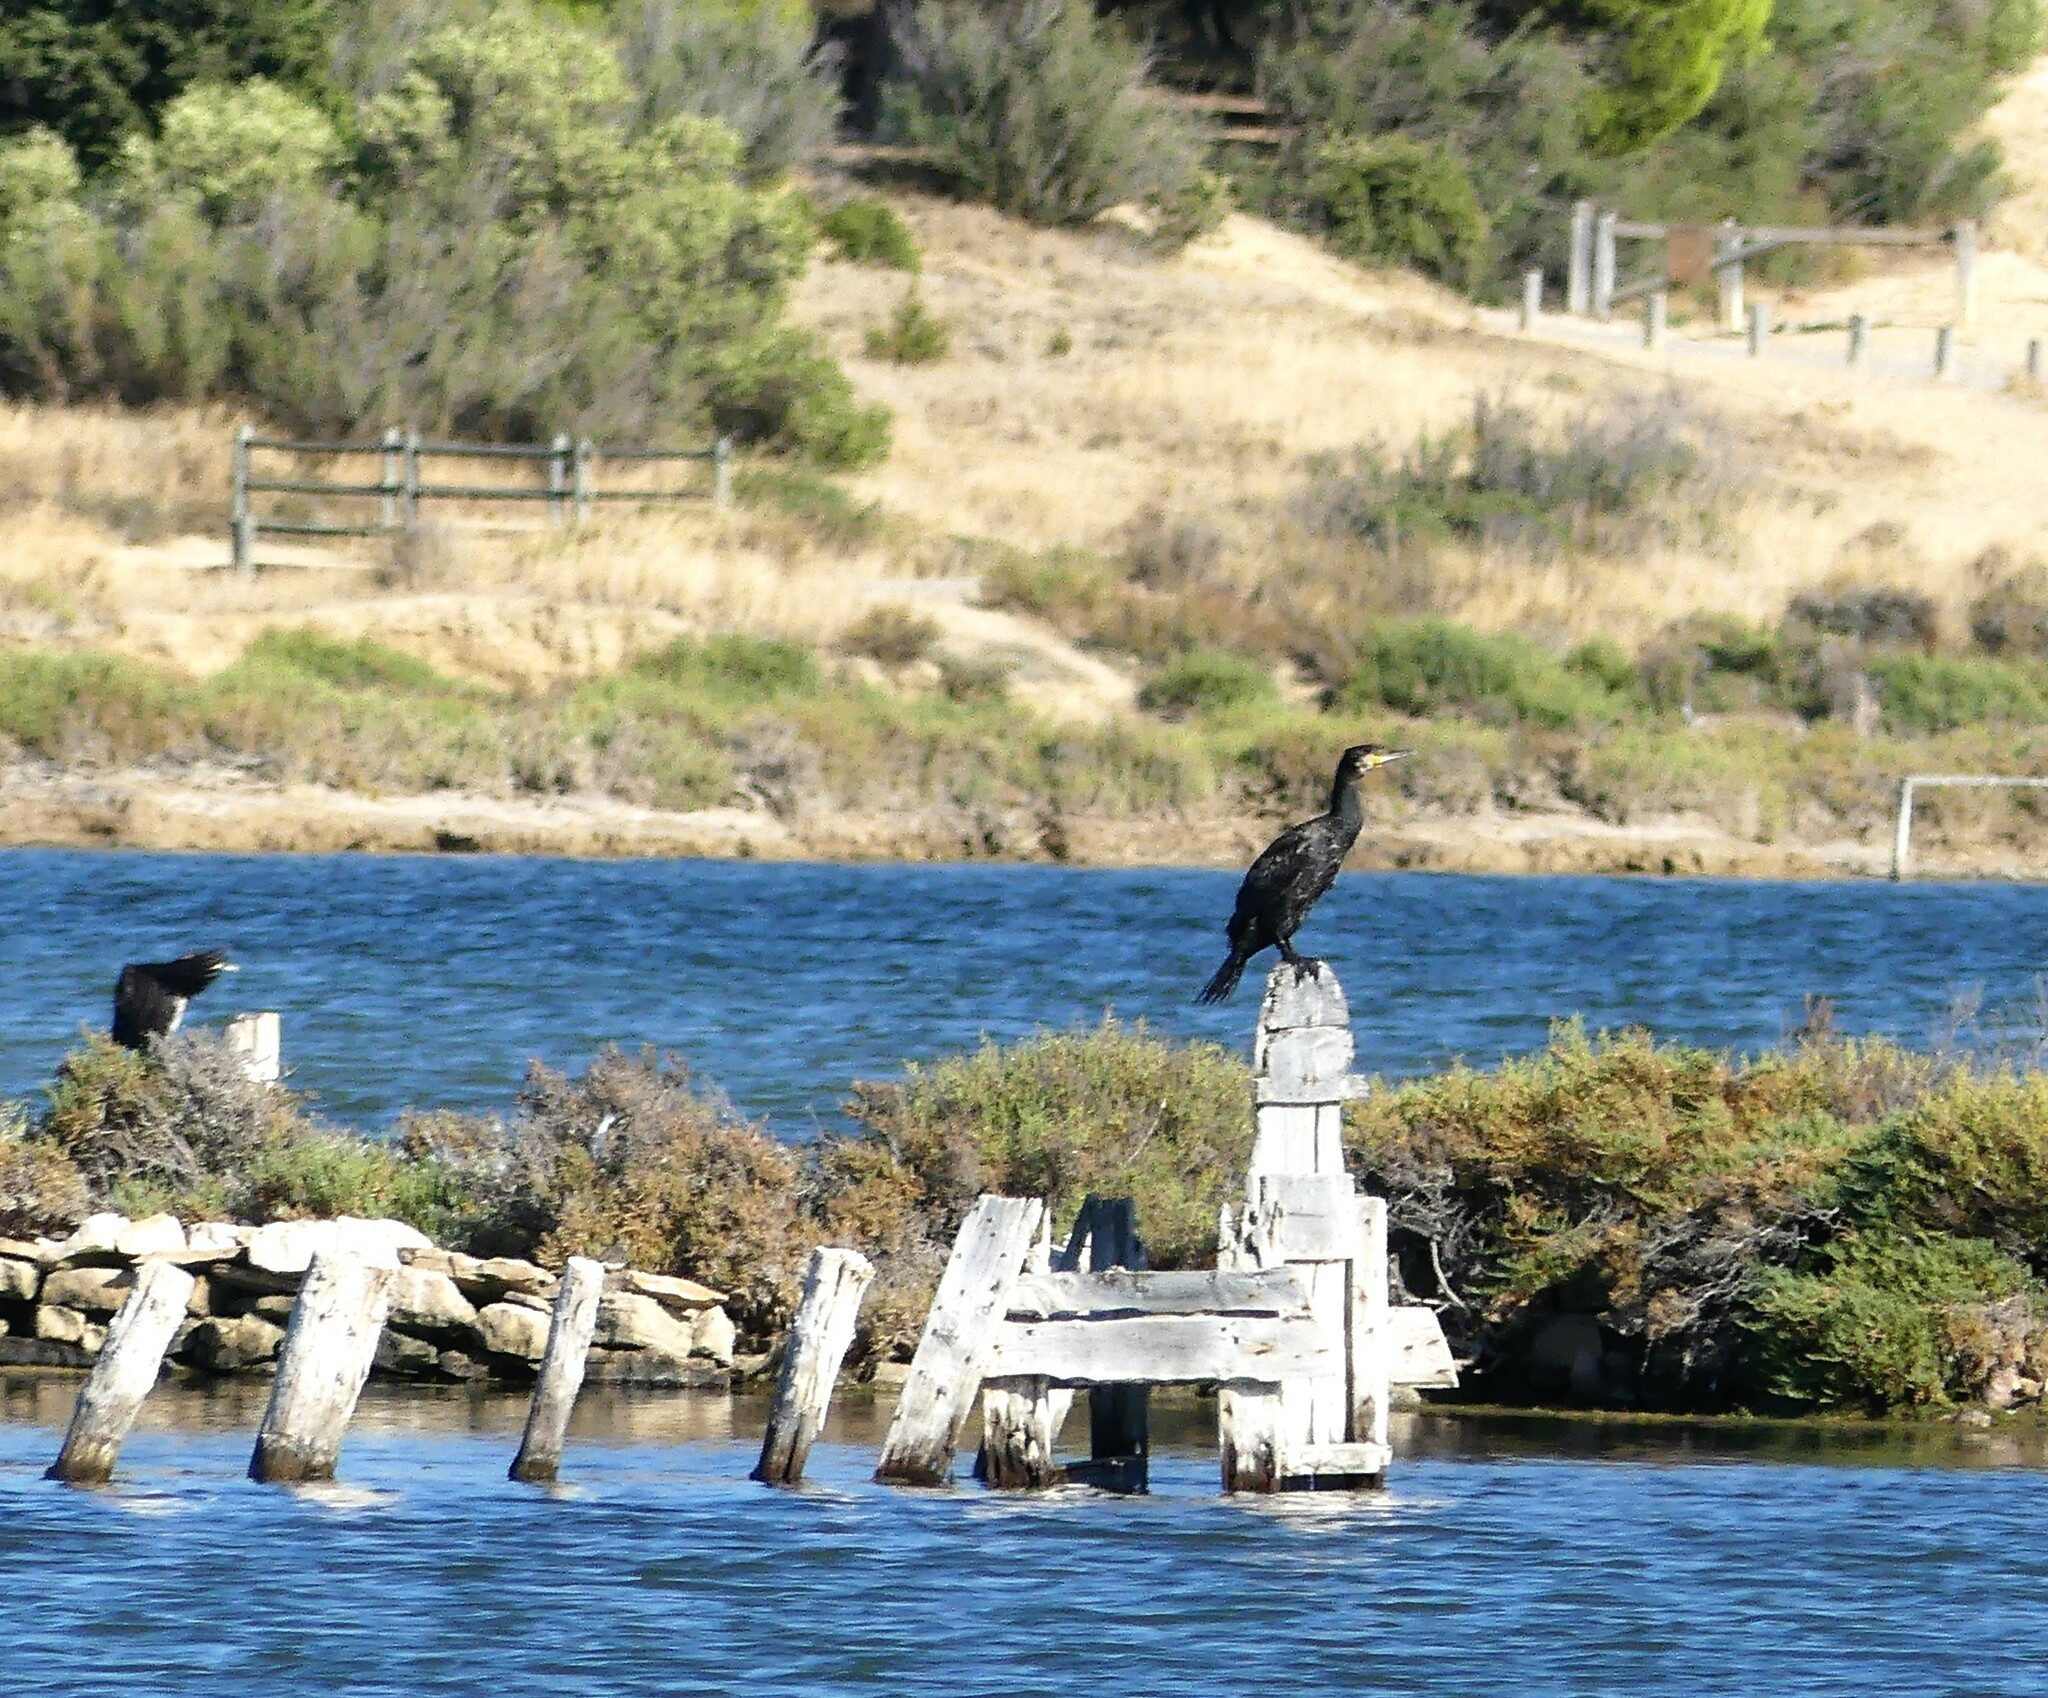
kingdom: Animalia
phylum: Chordata
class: Aves
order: Suliformes
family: Phalacrocoracidae
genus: Phalacrocorax
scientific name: Phalacrocorax carbo
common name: Great cormorant
